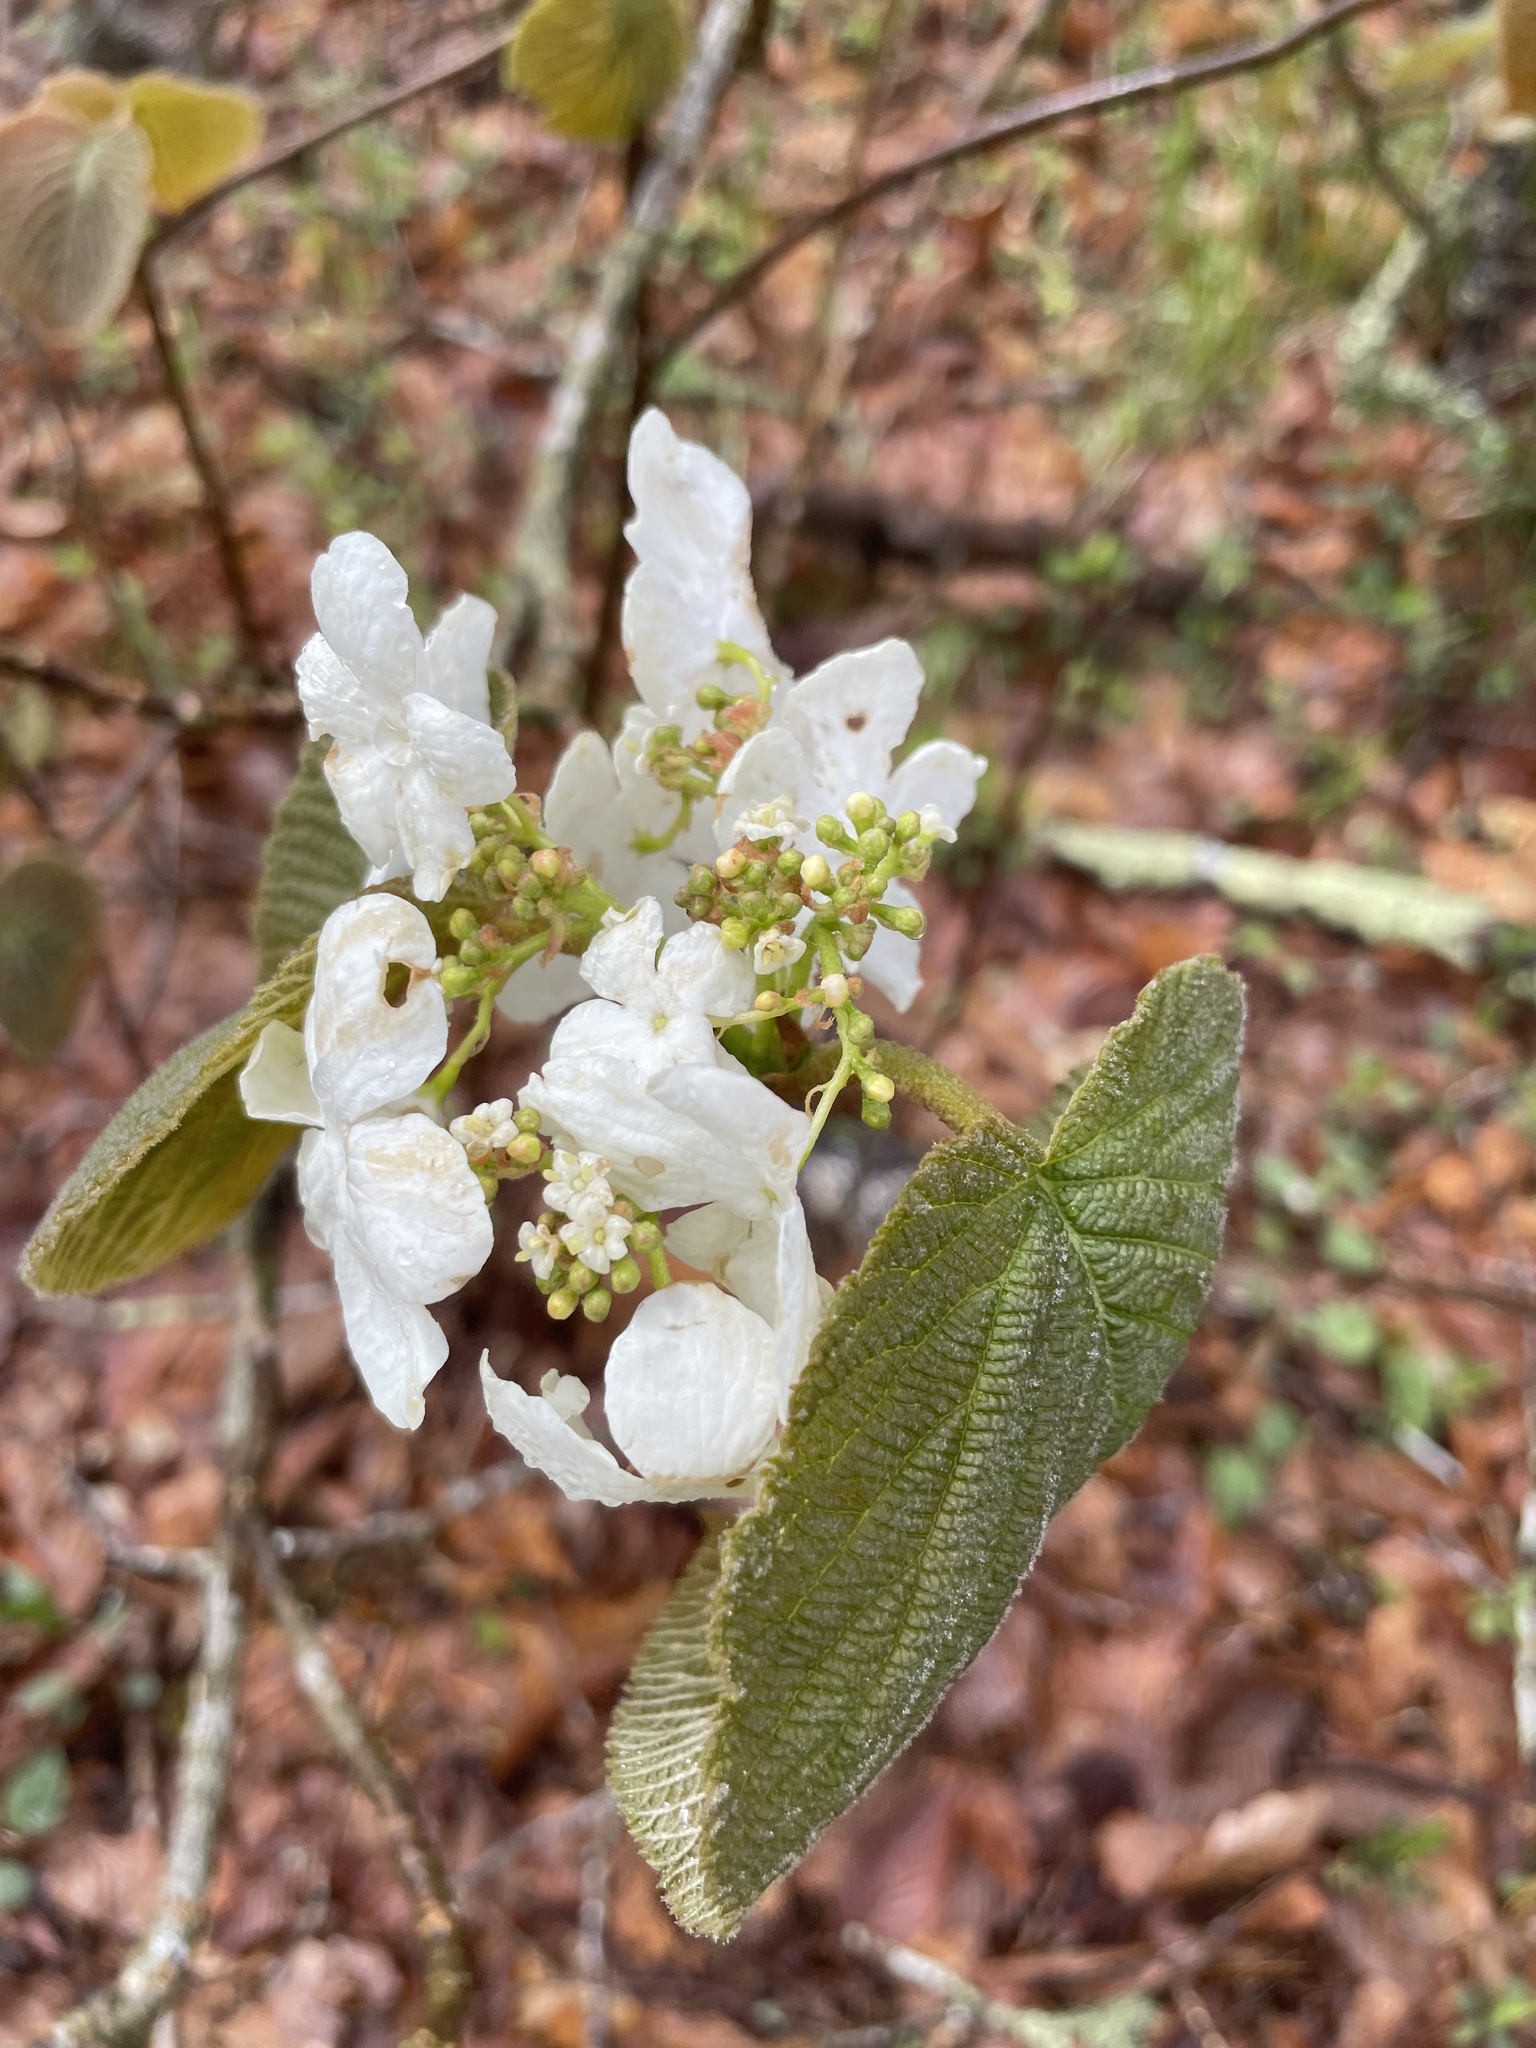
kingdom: Plantae
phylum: Tracheophyta
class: Magnoliopsida
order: Dipsacales
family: Viburnaceae
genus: Viburnum
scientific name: Viburnum lantanoides
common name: Hobblebush
